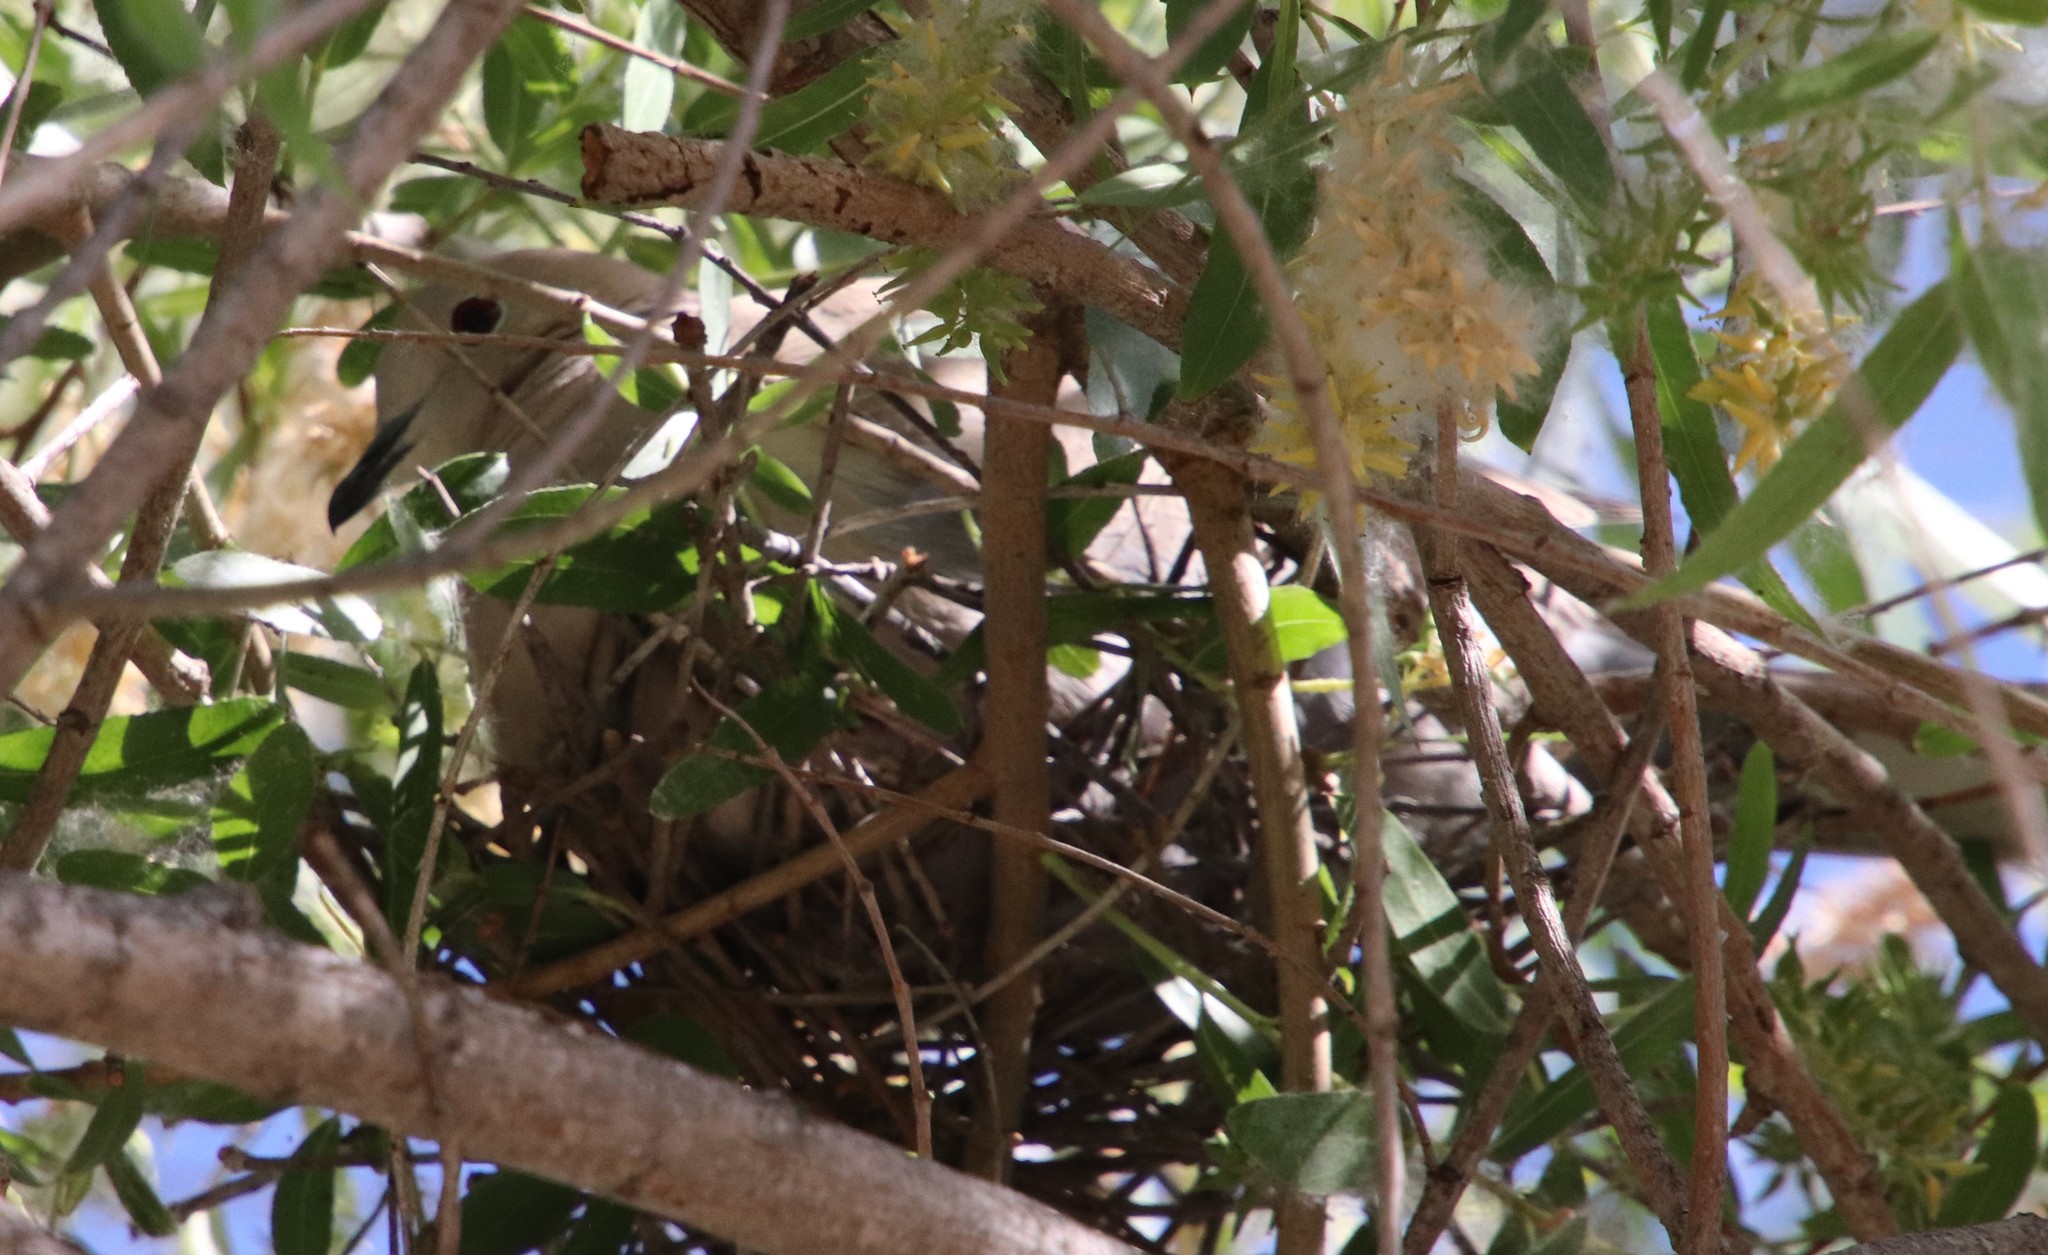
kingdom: Animalia
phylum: Chordata
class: Aves
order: Columbiformes
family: Columbidae
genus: Streptopelia
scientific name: Streptopelia decaocto
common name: Eurasian collared dove
